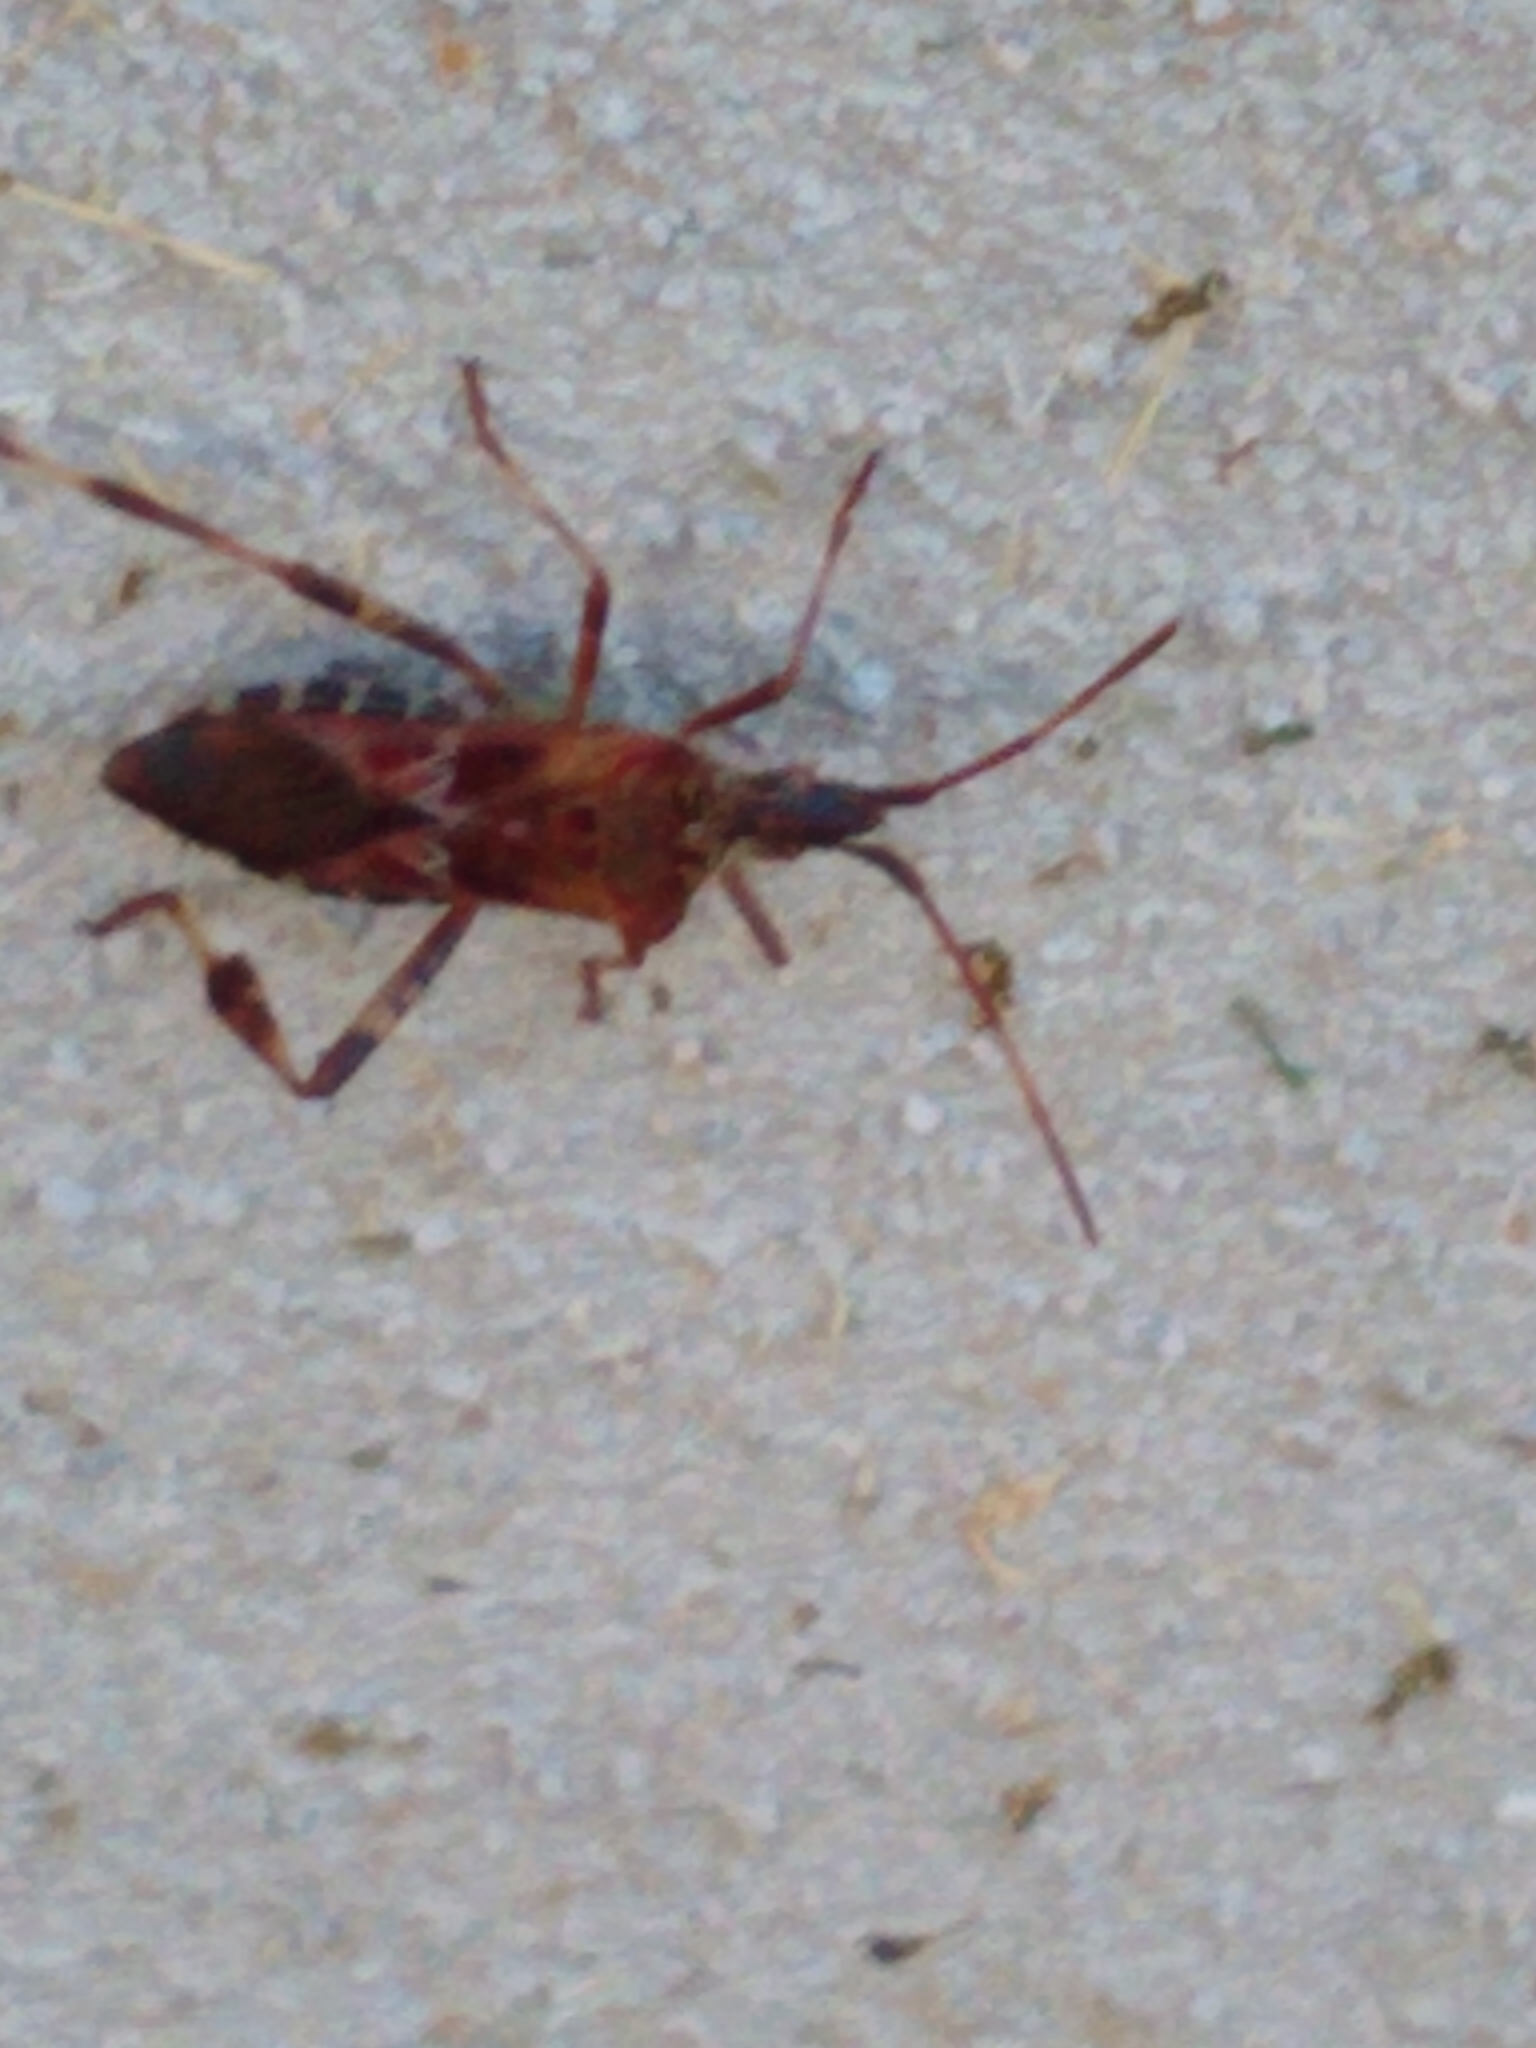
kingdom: Animalia
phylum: Arthropoda
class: Insecta
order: Hemiptera
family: Coreidae
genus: Leptoglossus
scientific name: Leptoglossus occidentalis
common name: Western conifer-seed bug
